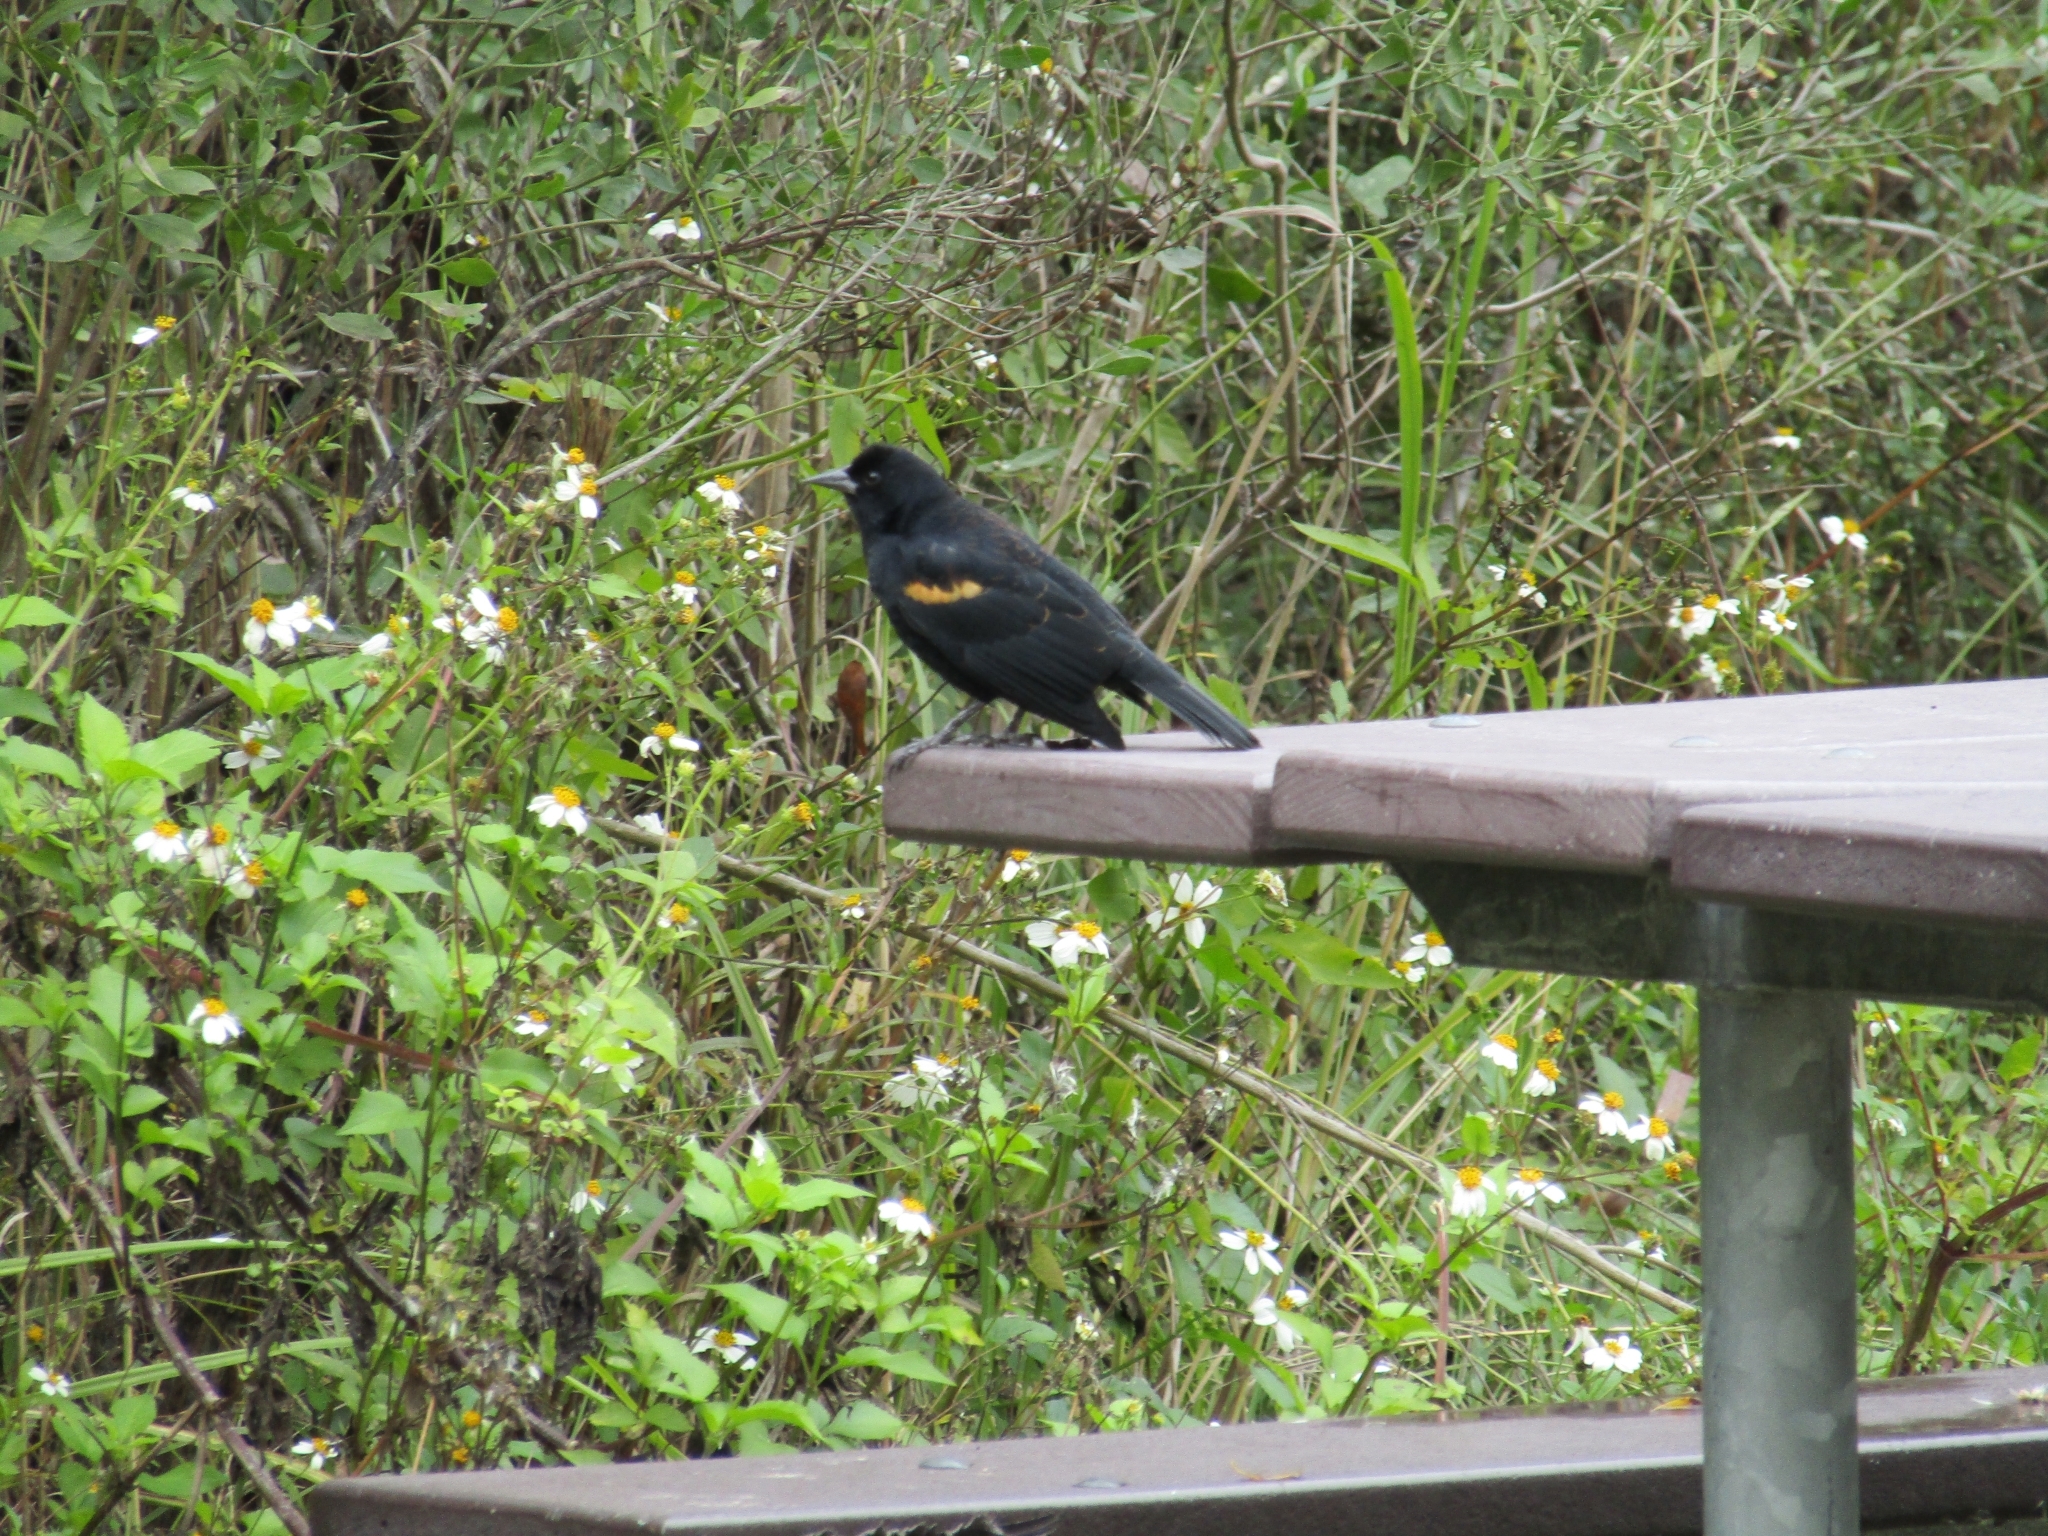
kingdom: Animalia
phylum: Chordata
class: Aves
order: Passeriformes
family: Icteridae
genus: Agelaius
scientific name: Agelaius phoeniceus
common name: Red-winged blackbird
